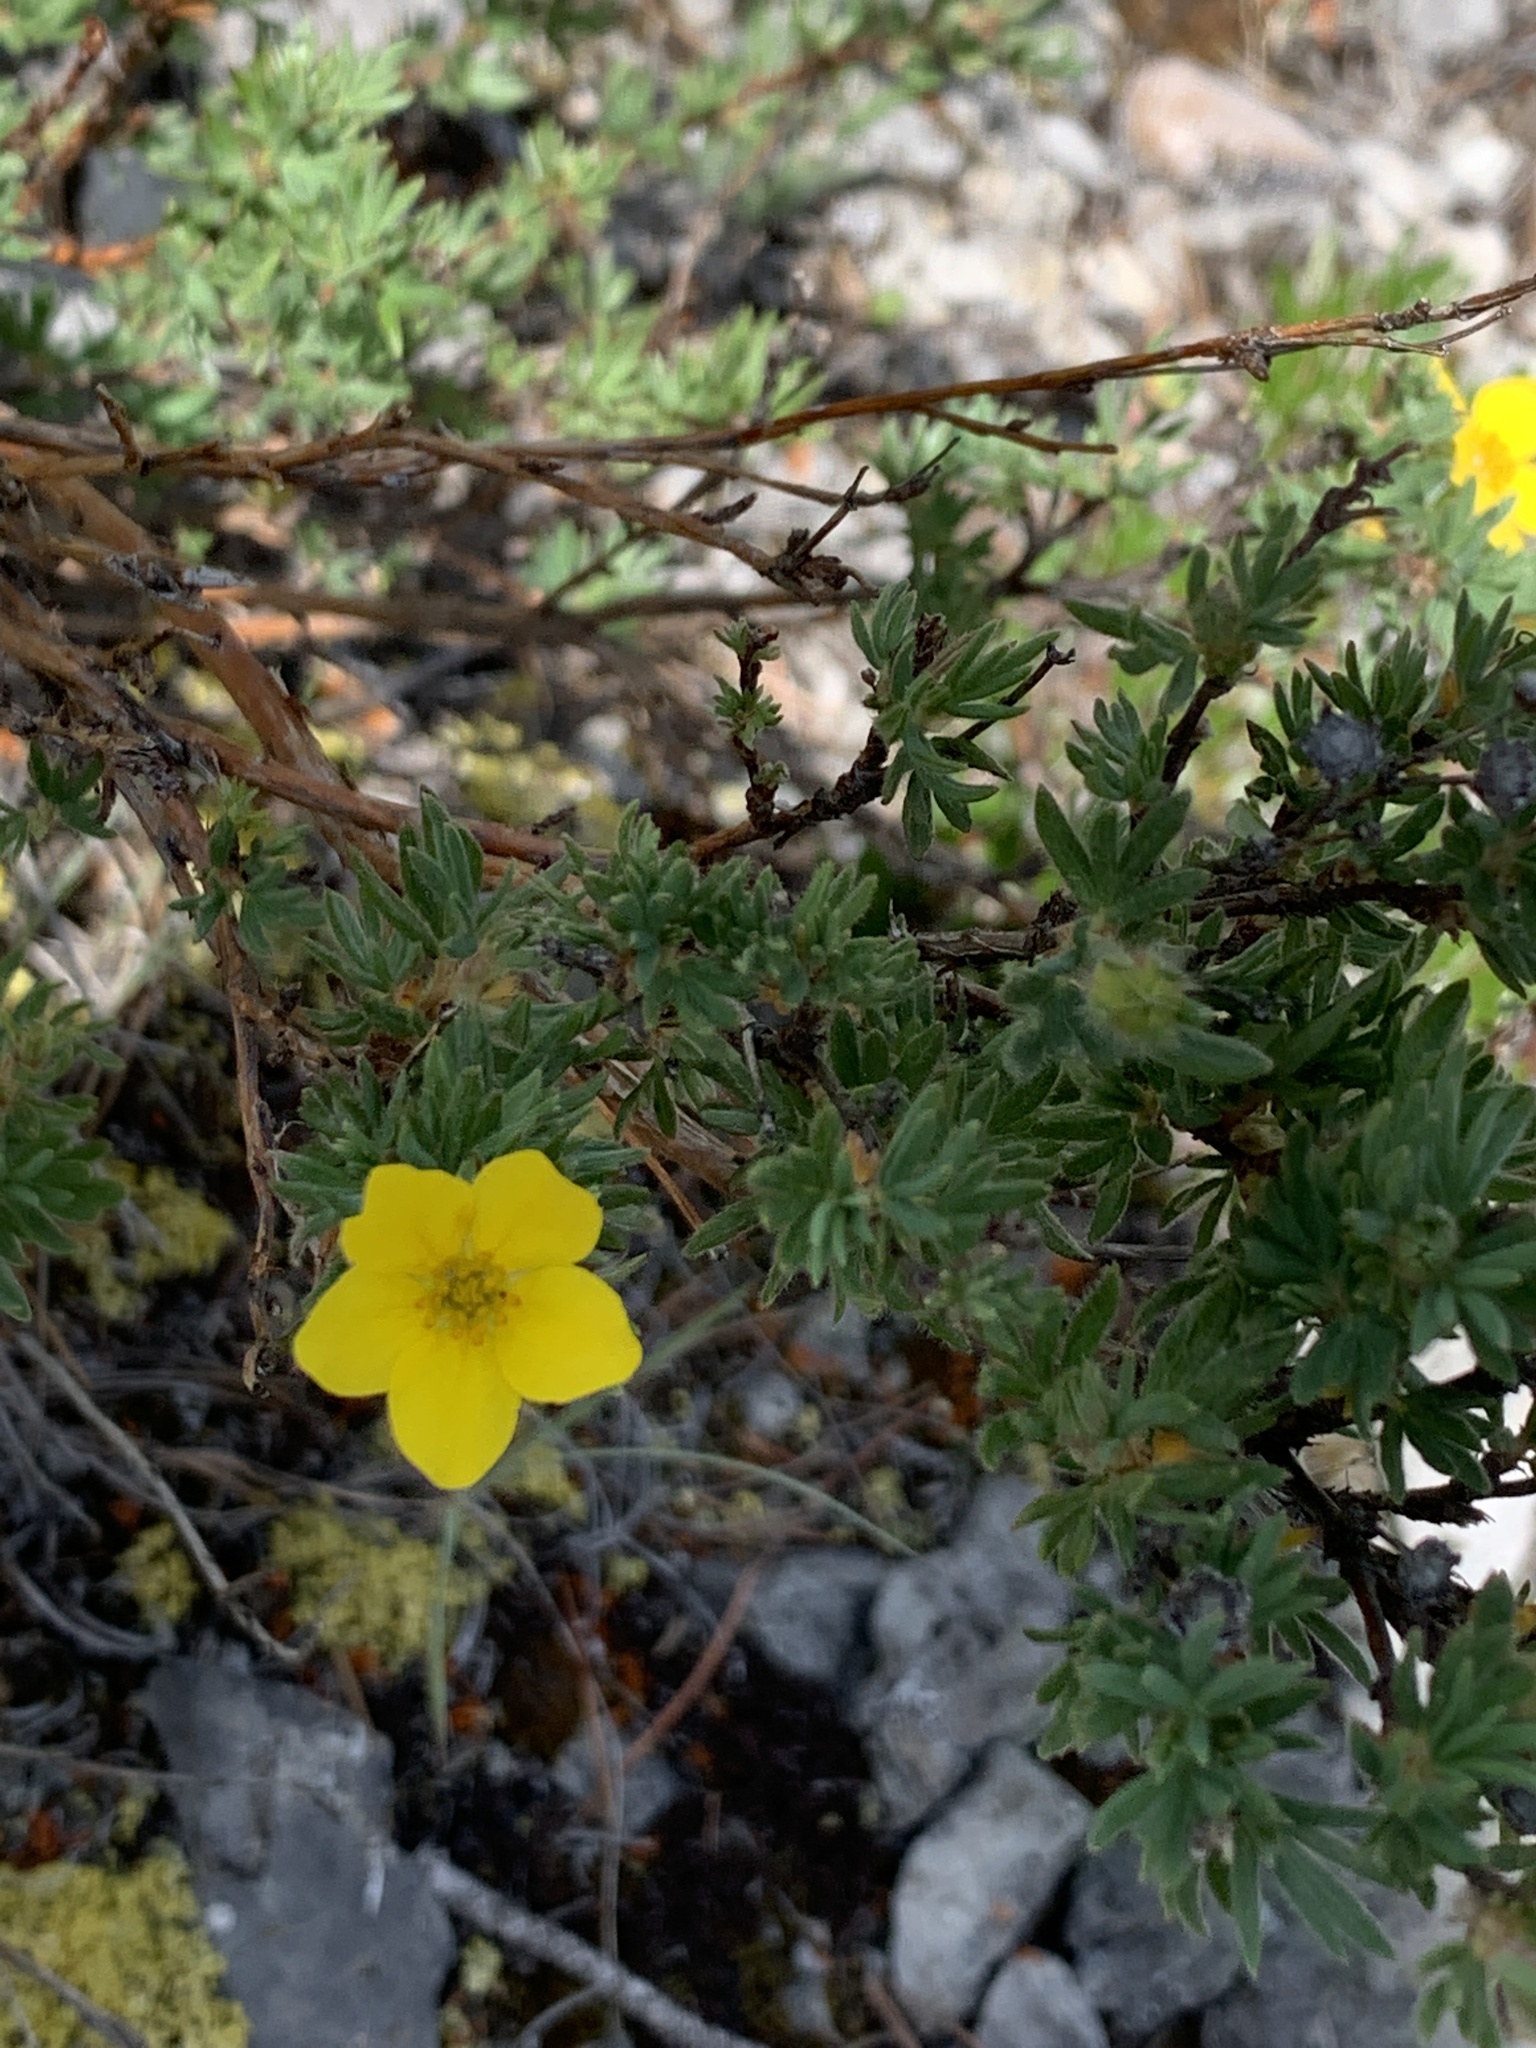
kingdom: Plantae
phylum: Tracheophyta
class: Magnoliopsida
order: Rosales
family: Rosaceae
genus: Dasiphora
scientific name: Dasiphora fruticosa
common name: Shrubby cinquefoil
